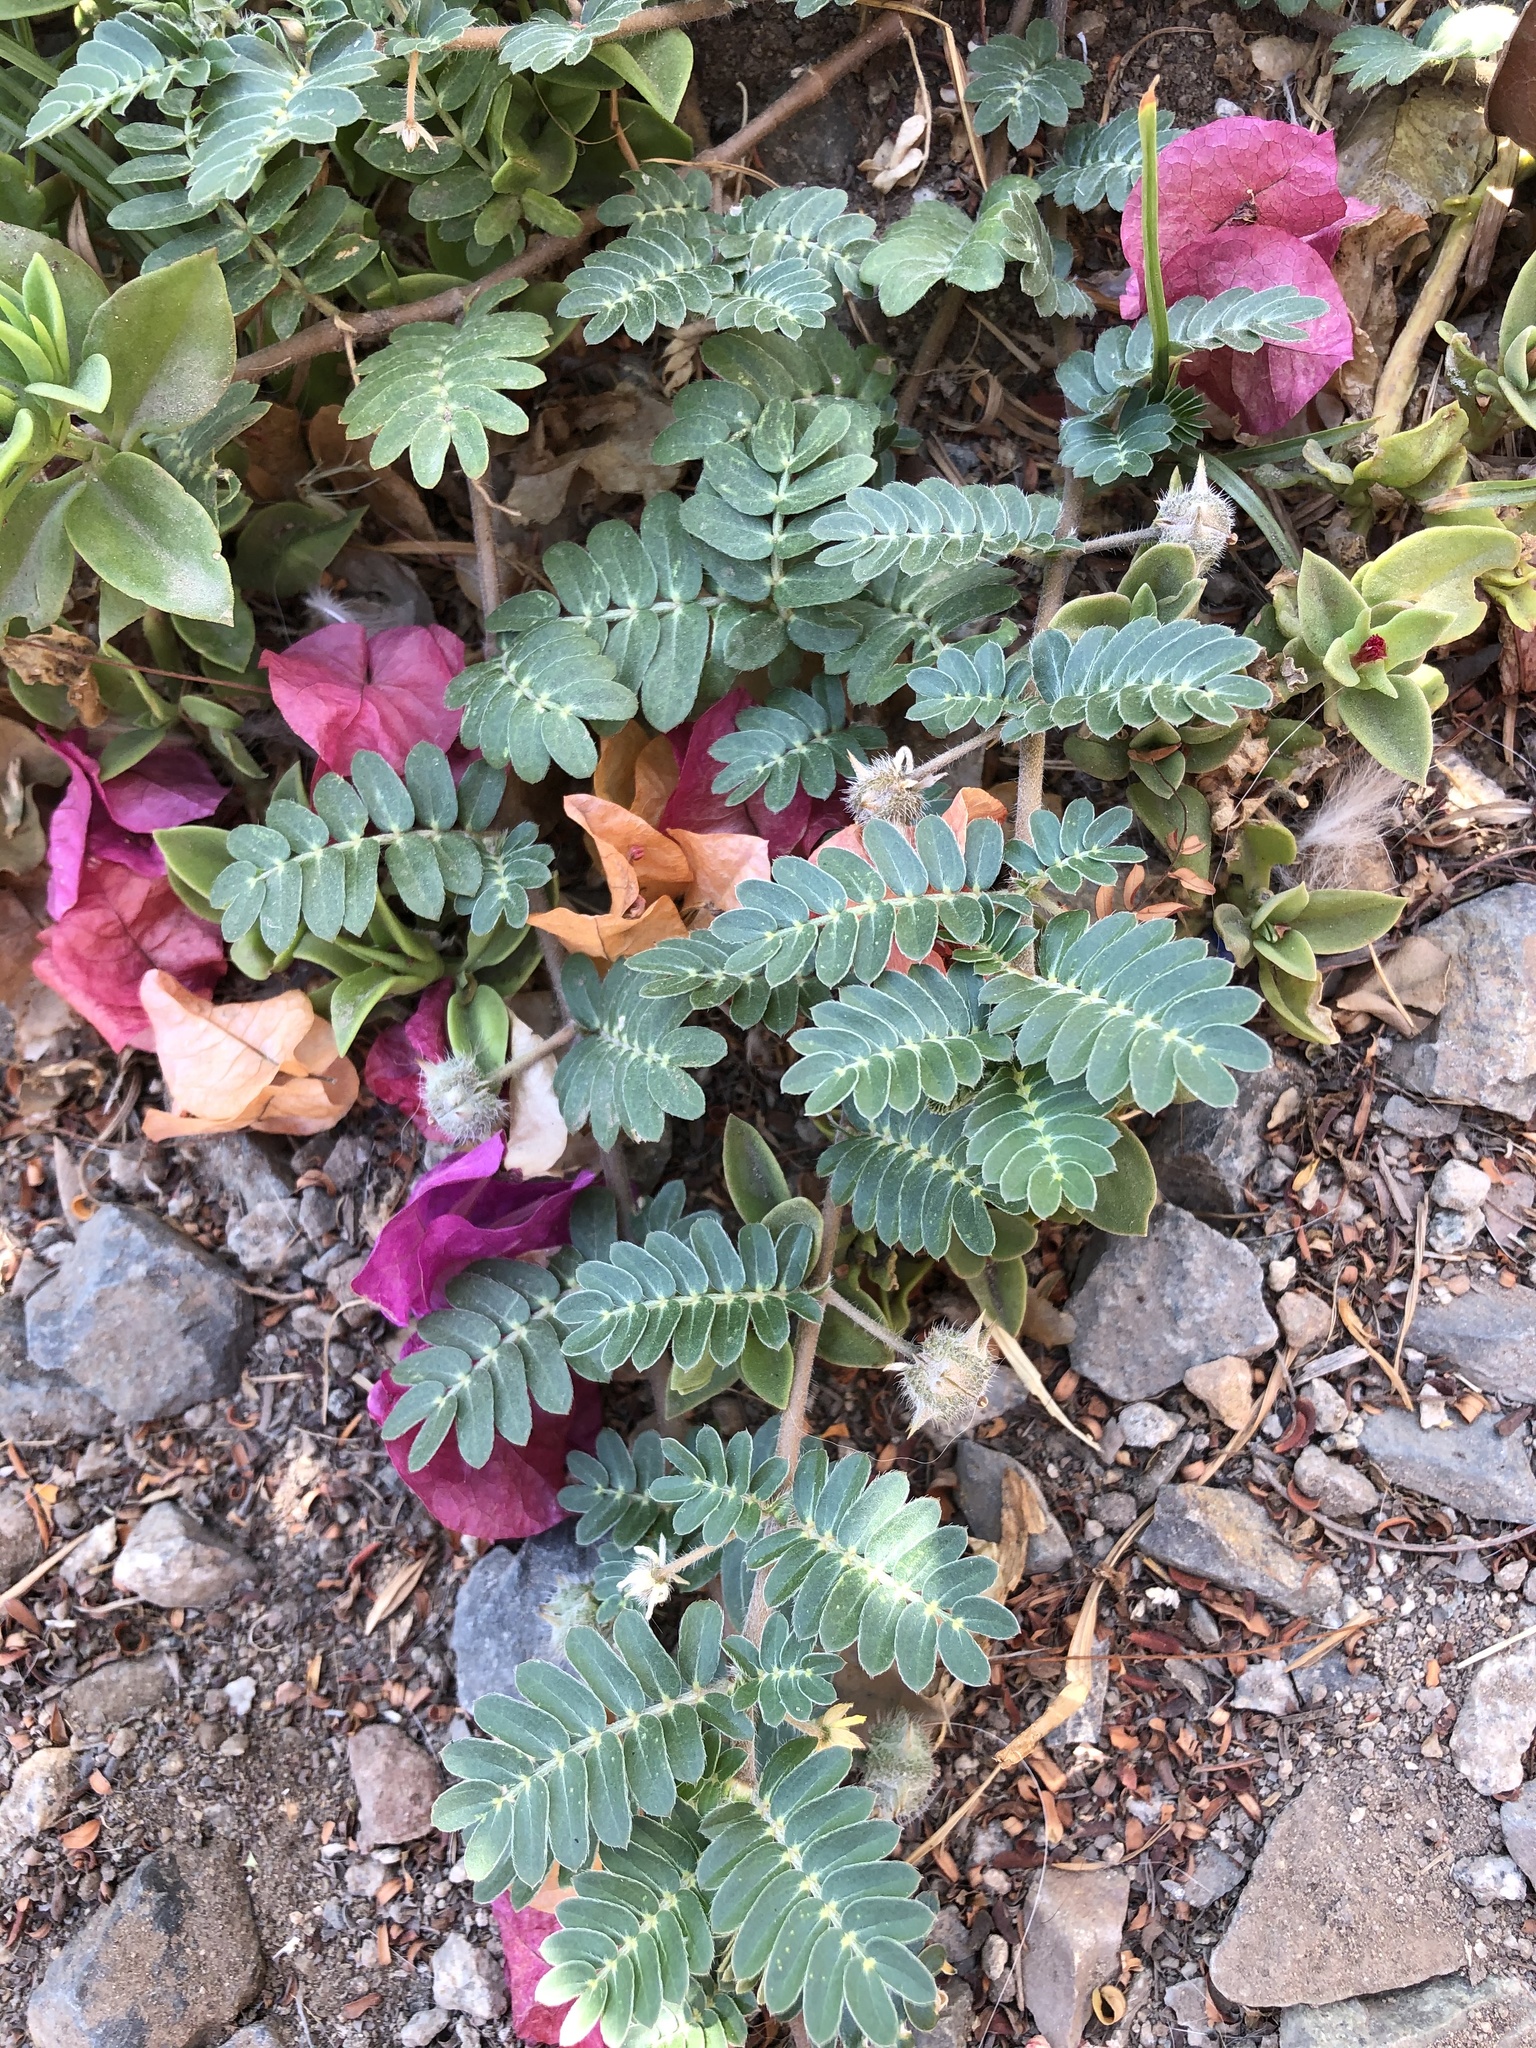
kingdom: Plantae
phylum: Tracheophyta
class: Magnoliopsida
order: Zygophyllales
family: Zygophyllaceae
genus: Tribulus
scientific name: Tribulus terrestris
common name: Puncturevine
